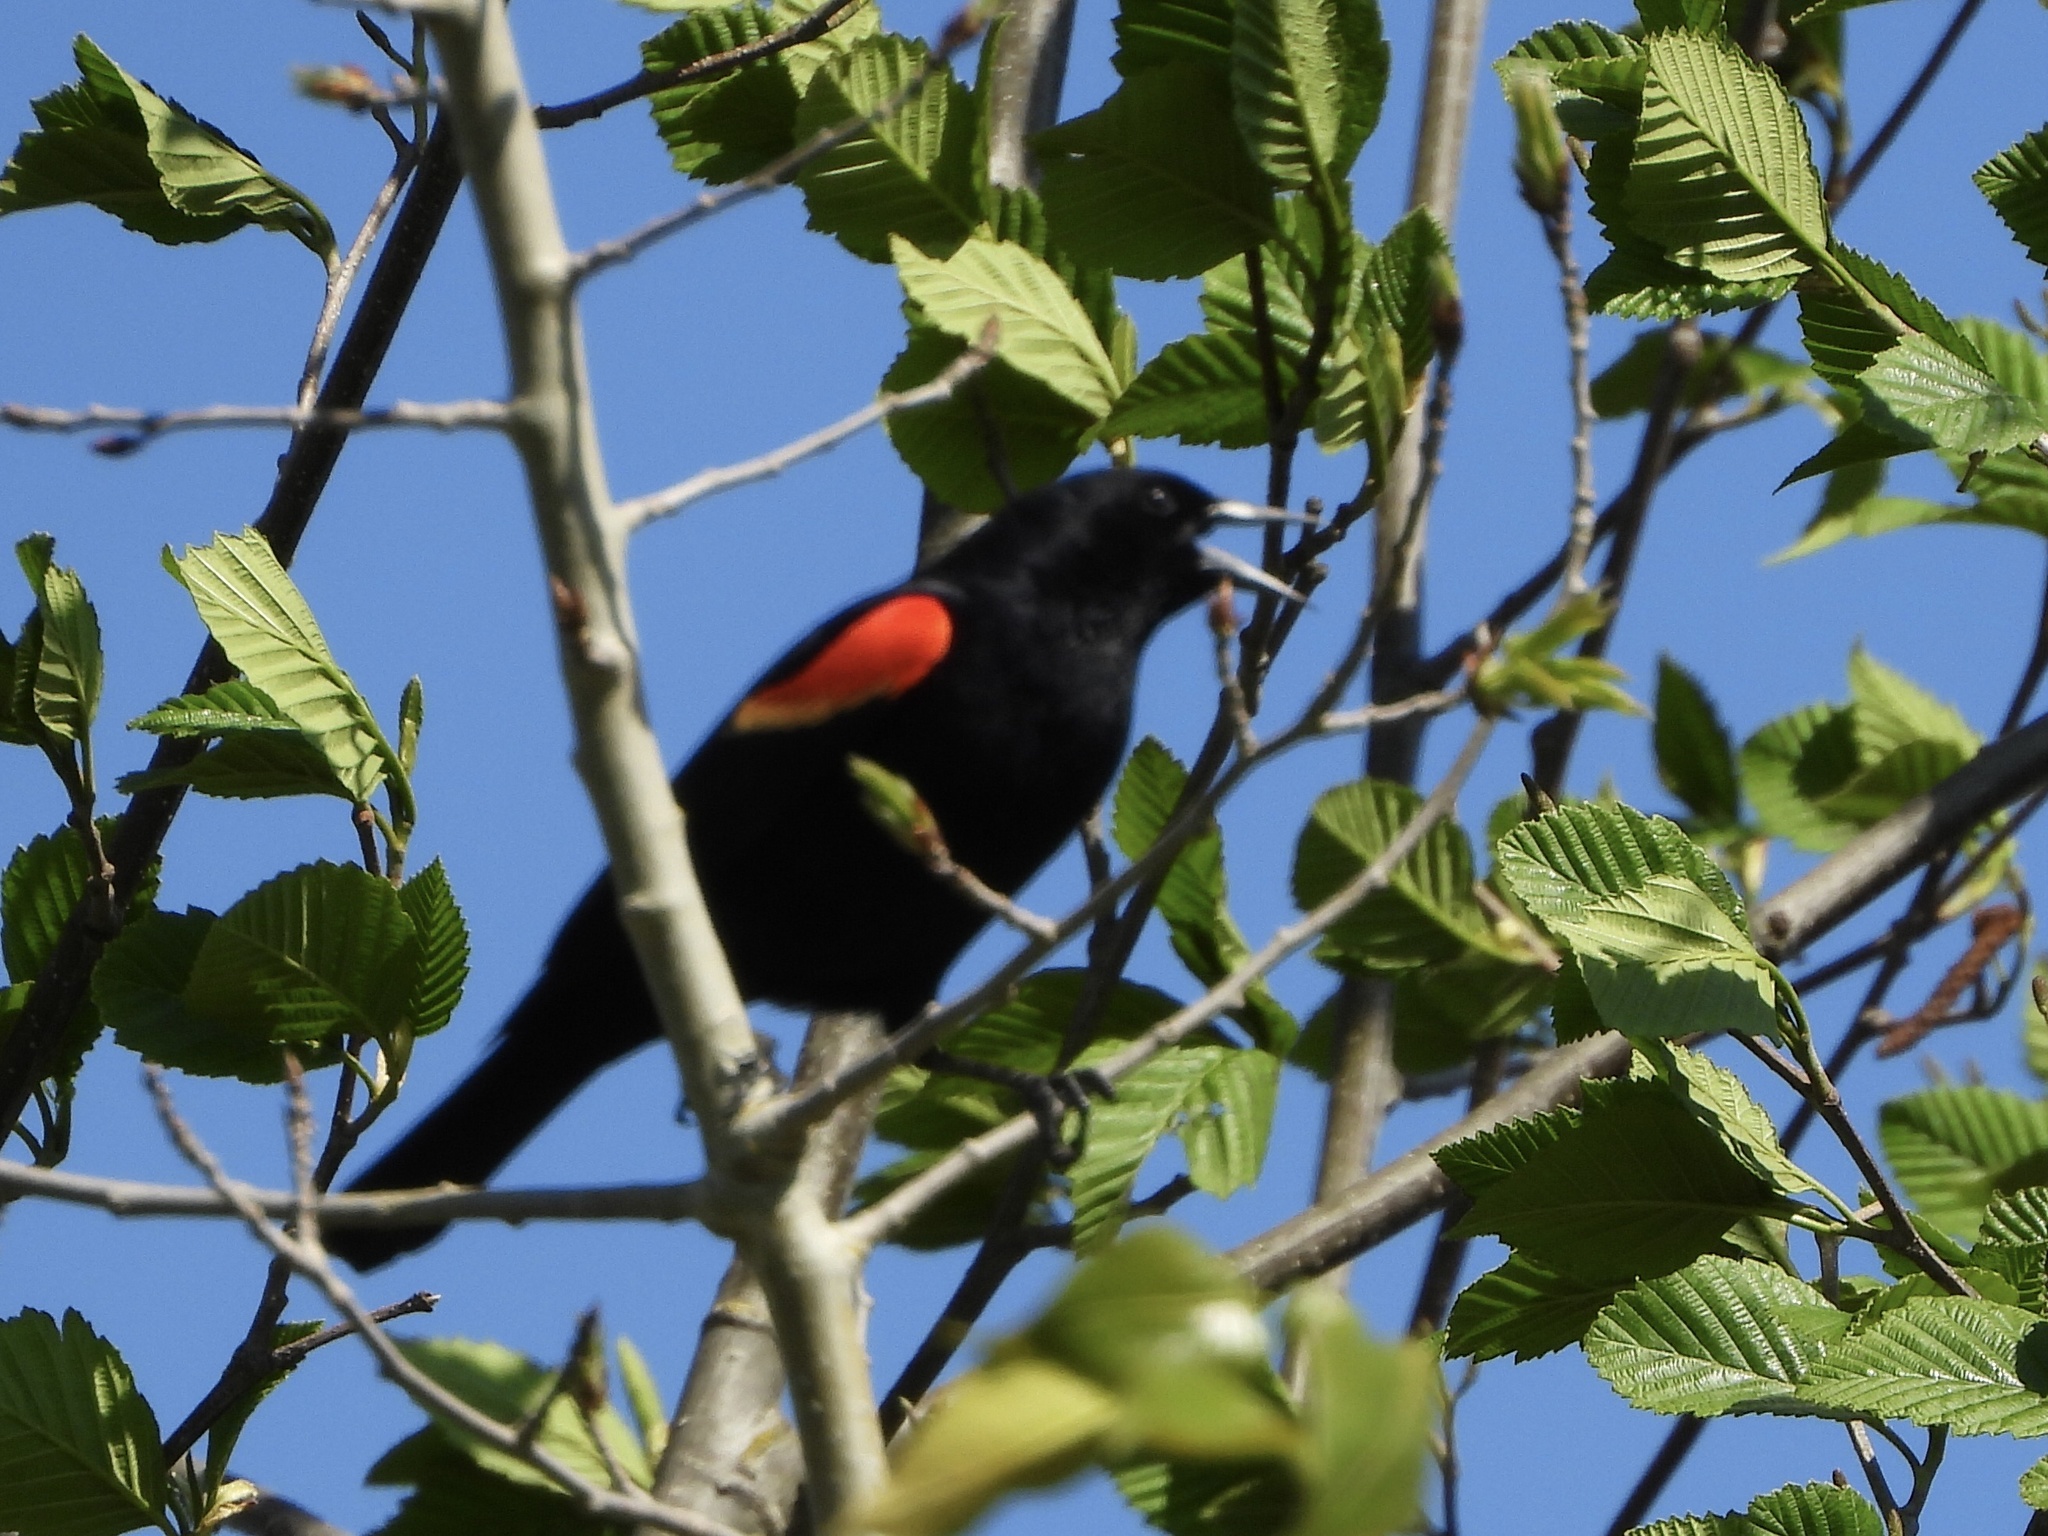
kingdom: Animalia
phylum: Chordata
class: Aves
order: Passeriformes
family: Icteridae
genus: Agelaius
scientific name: Agelaius phoeniceus
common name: Red-winged blackbird
